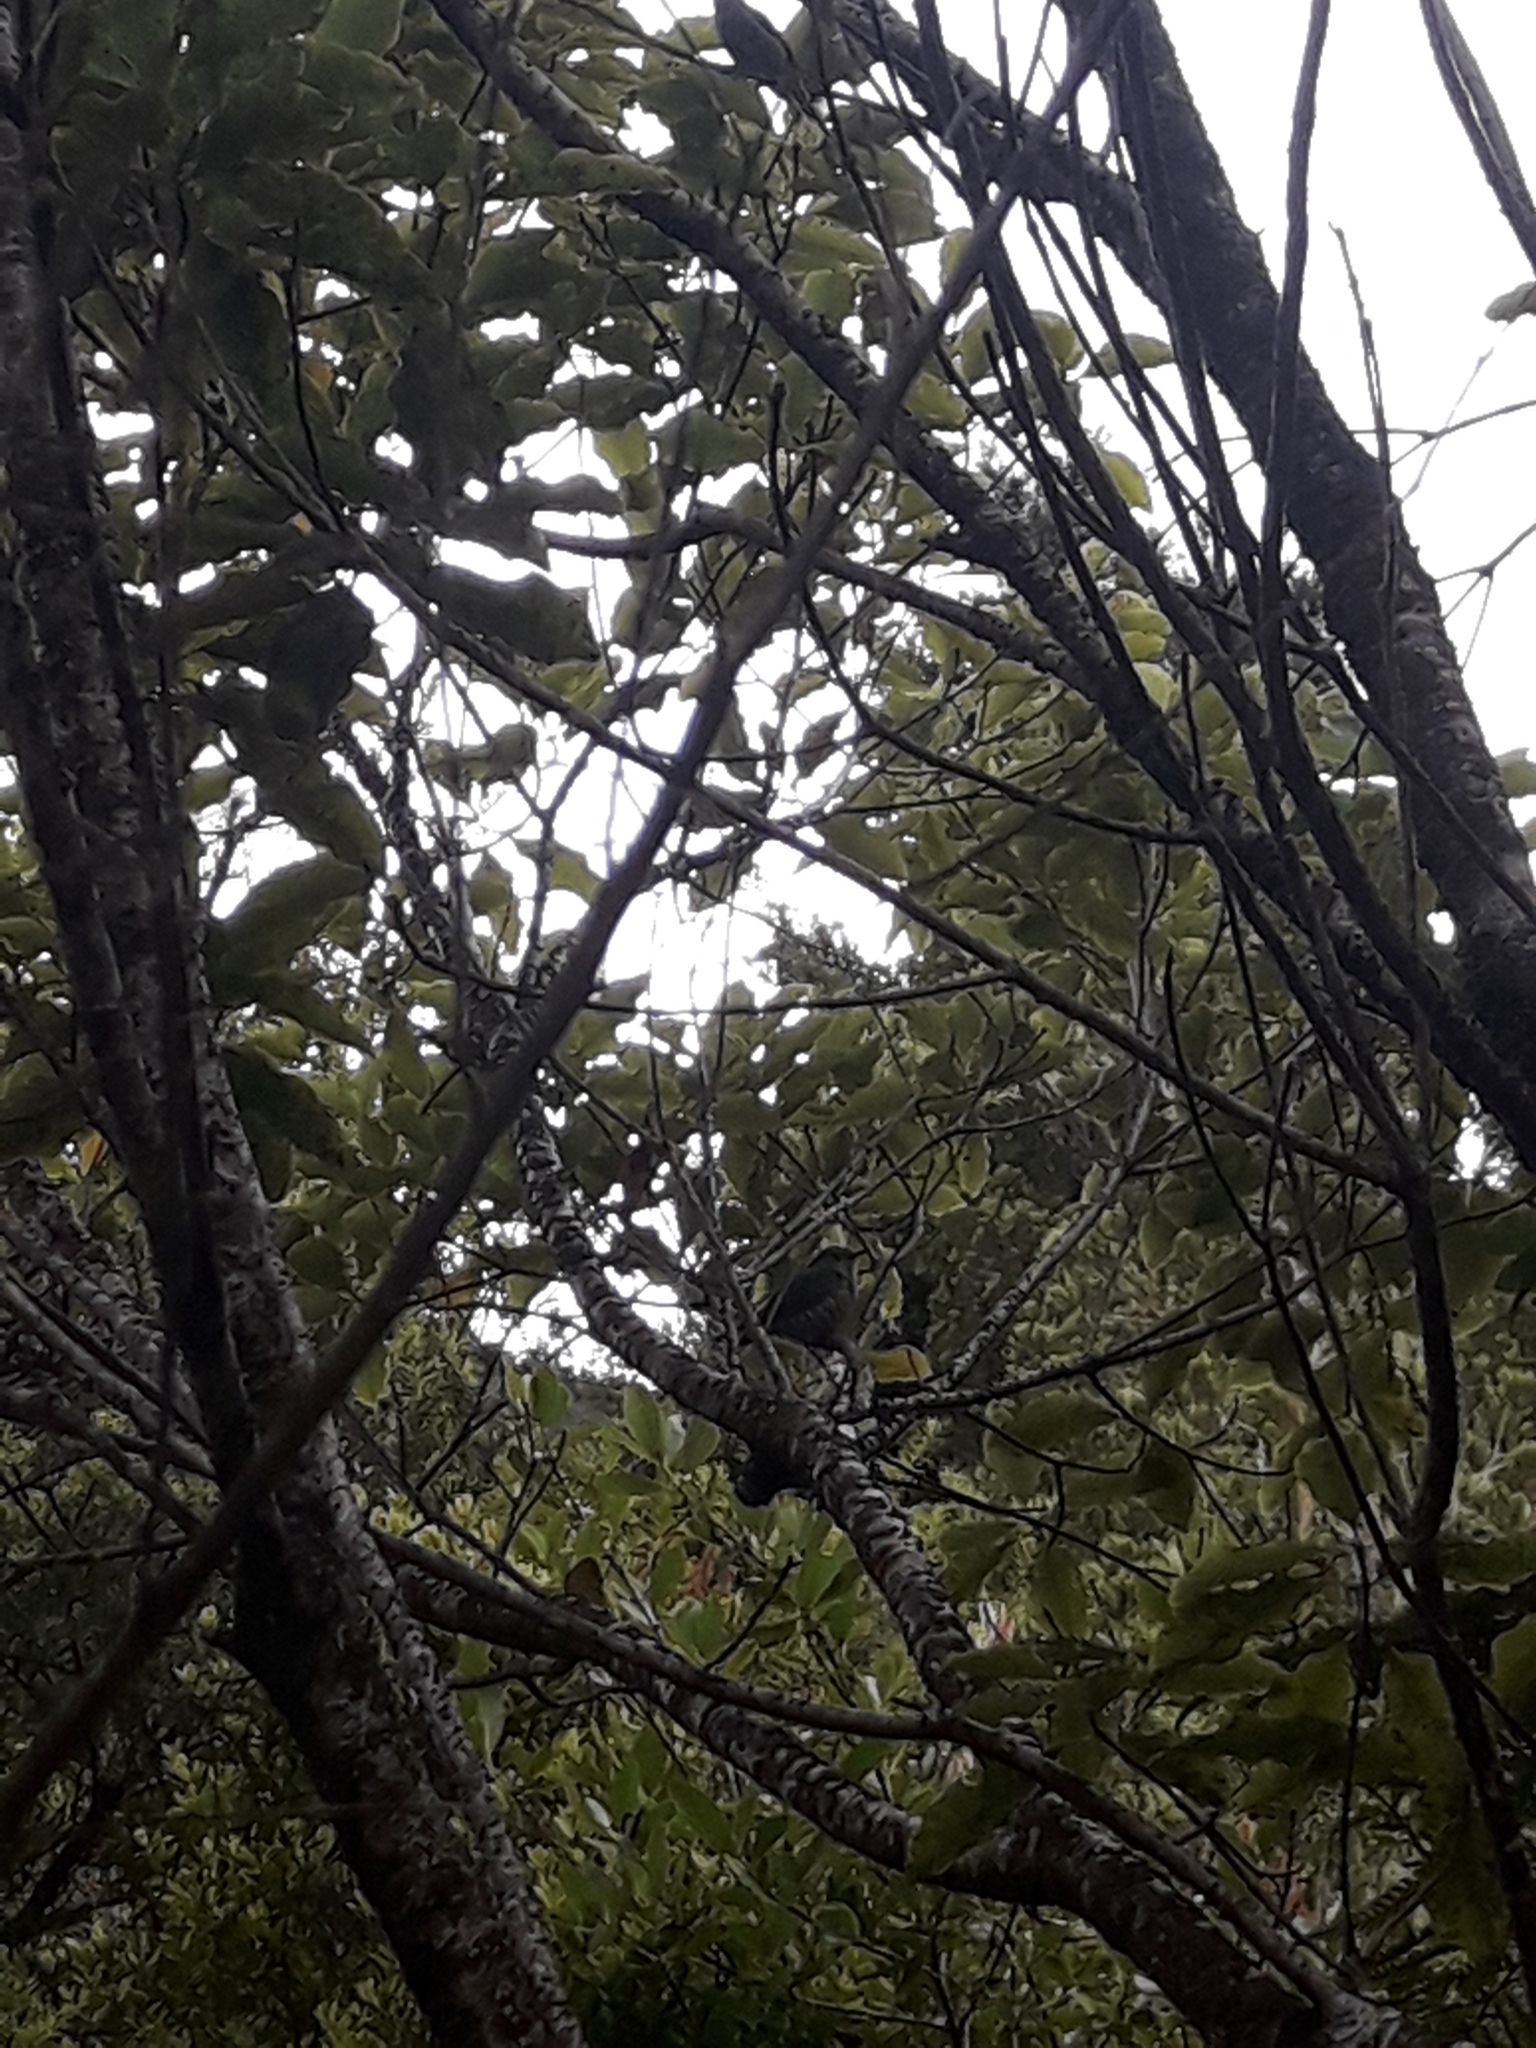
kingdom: Animalia
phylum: Chordata
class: Aves
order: Cuculiformes
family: Cuculidae
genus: Chrysococcyx
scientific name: Chrysococcyx lucidus
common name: Shining bronze cuckoo
